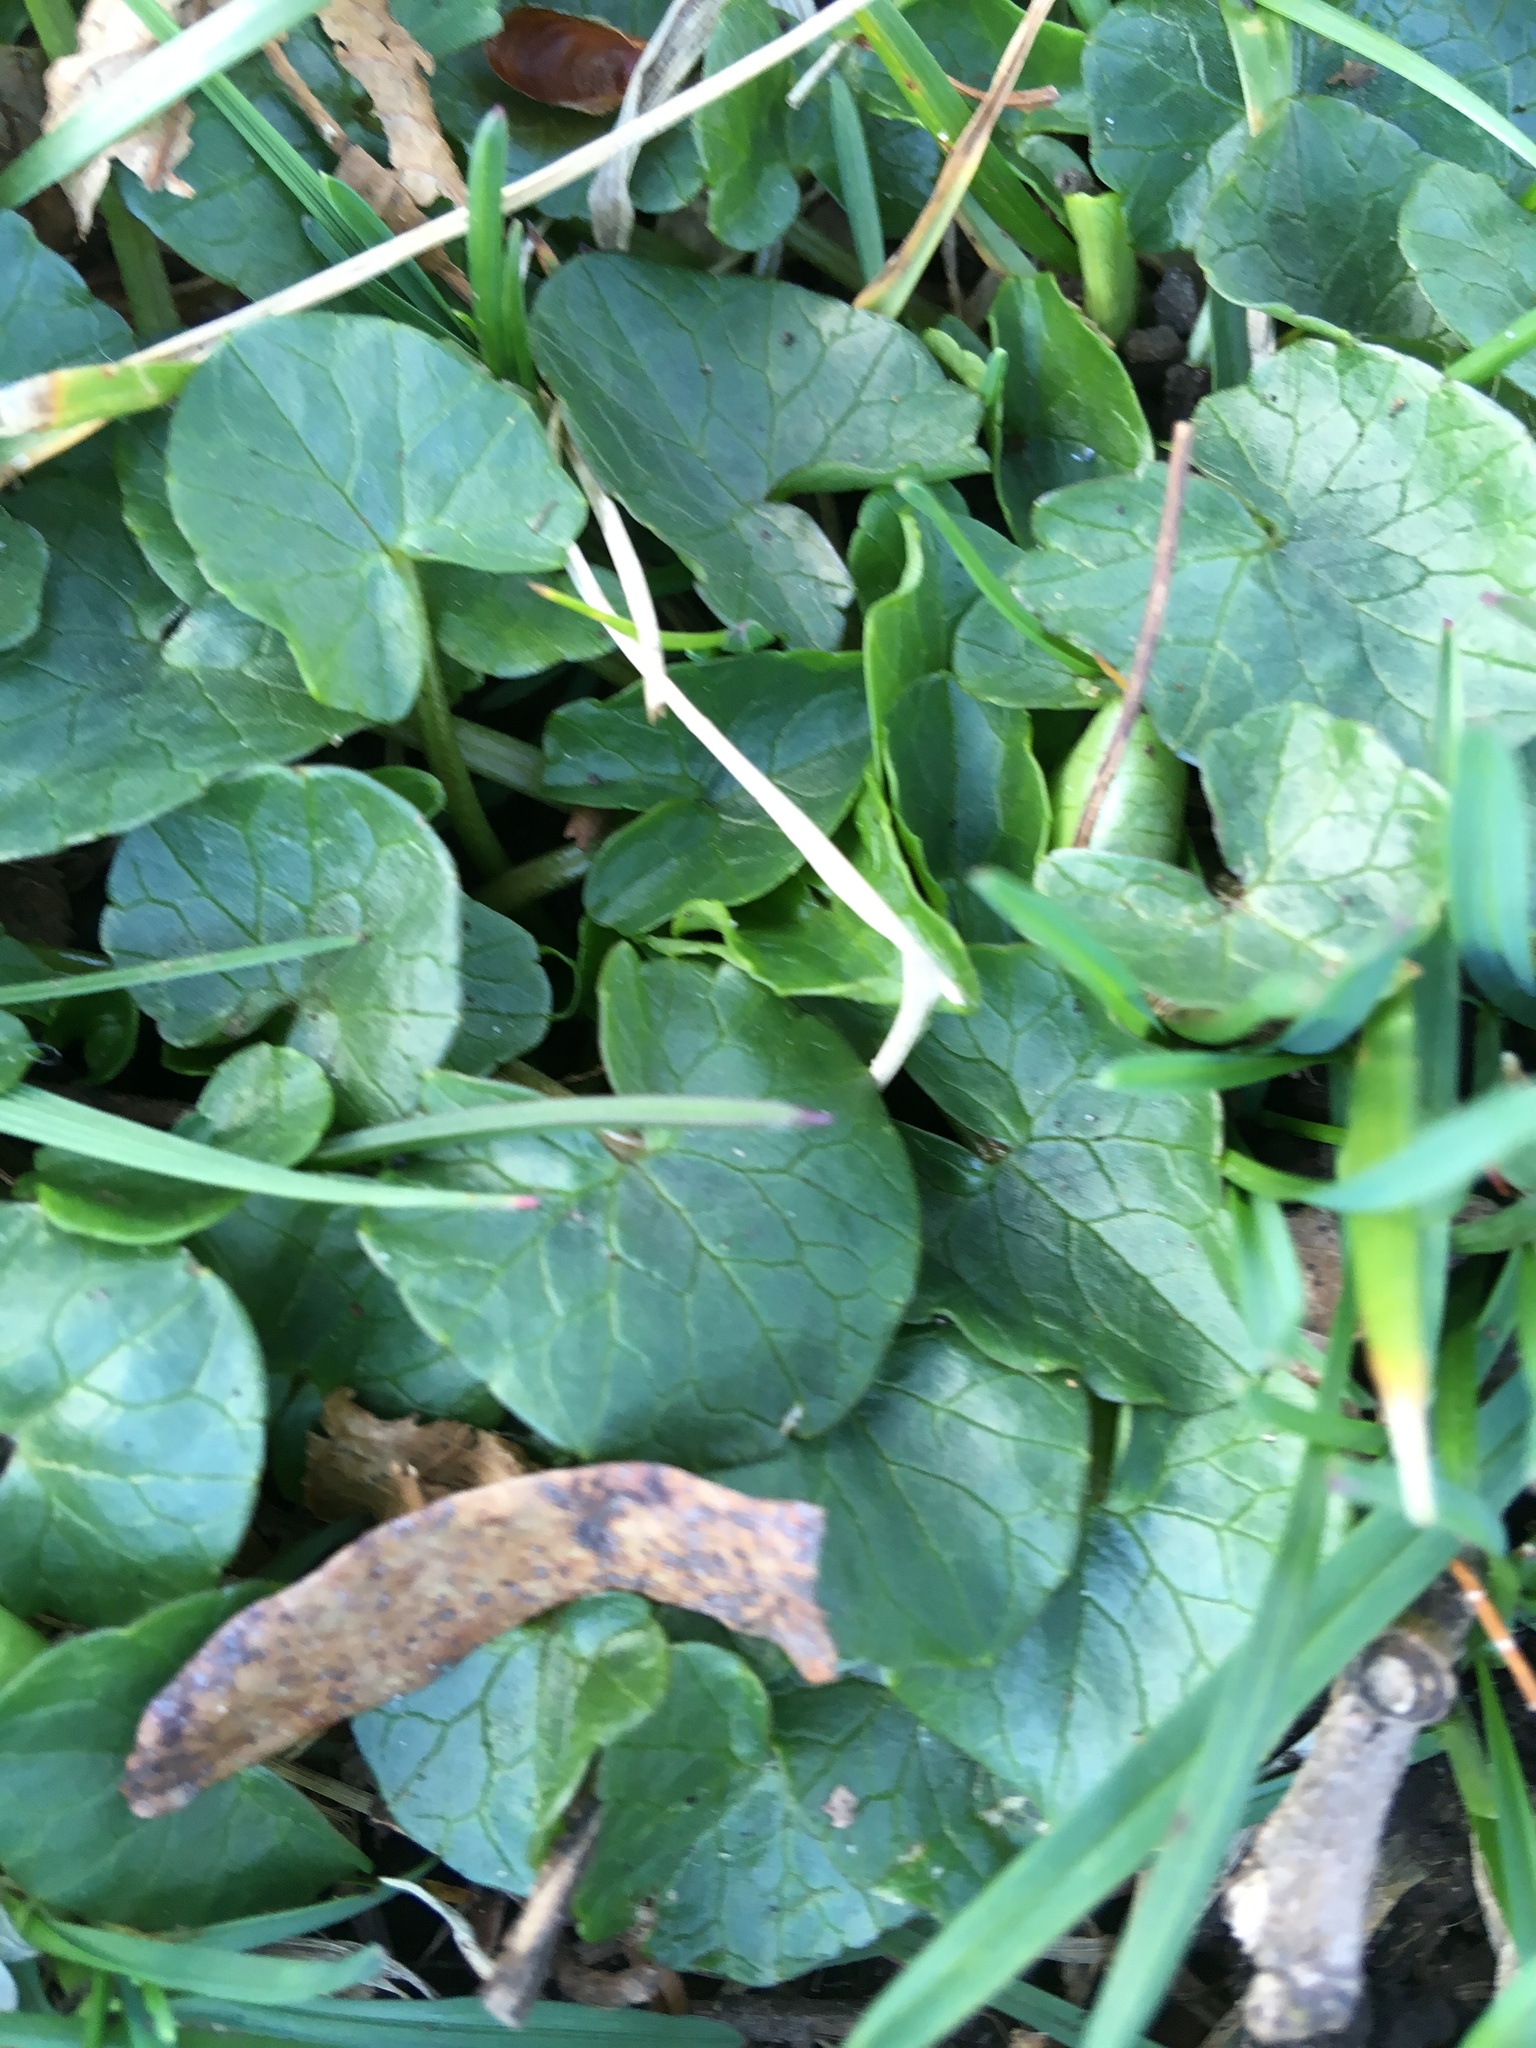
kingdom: Plantae
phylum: Tracheophyta
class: Magnoliopsida
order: Ranunculales
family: Ranunculaceae
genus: Ficaria
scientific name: Ficaria verna
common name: Lesser celandine
